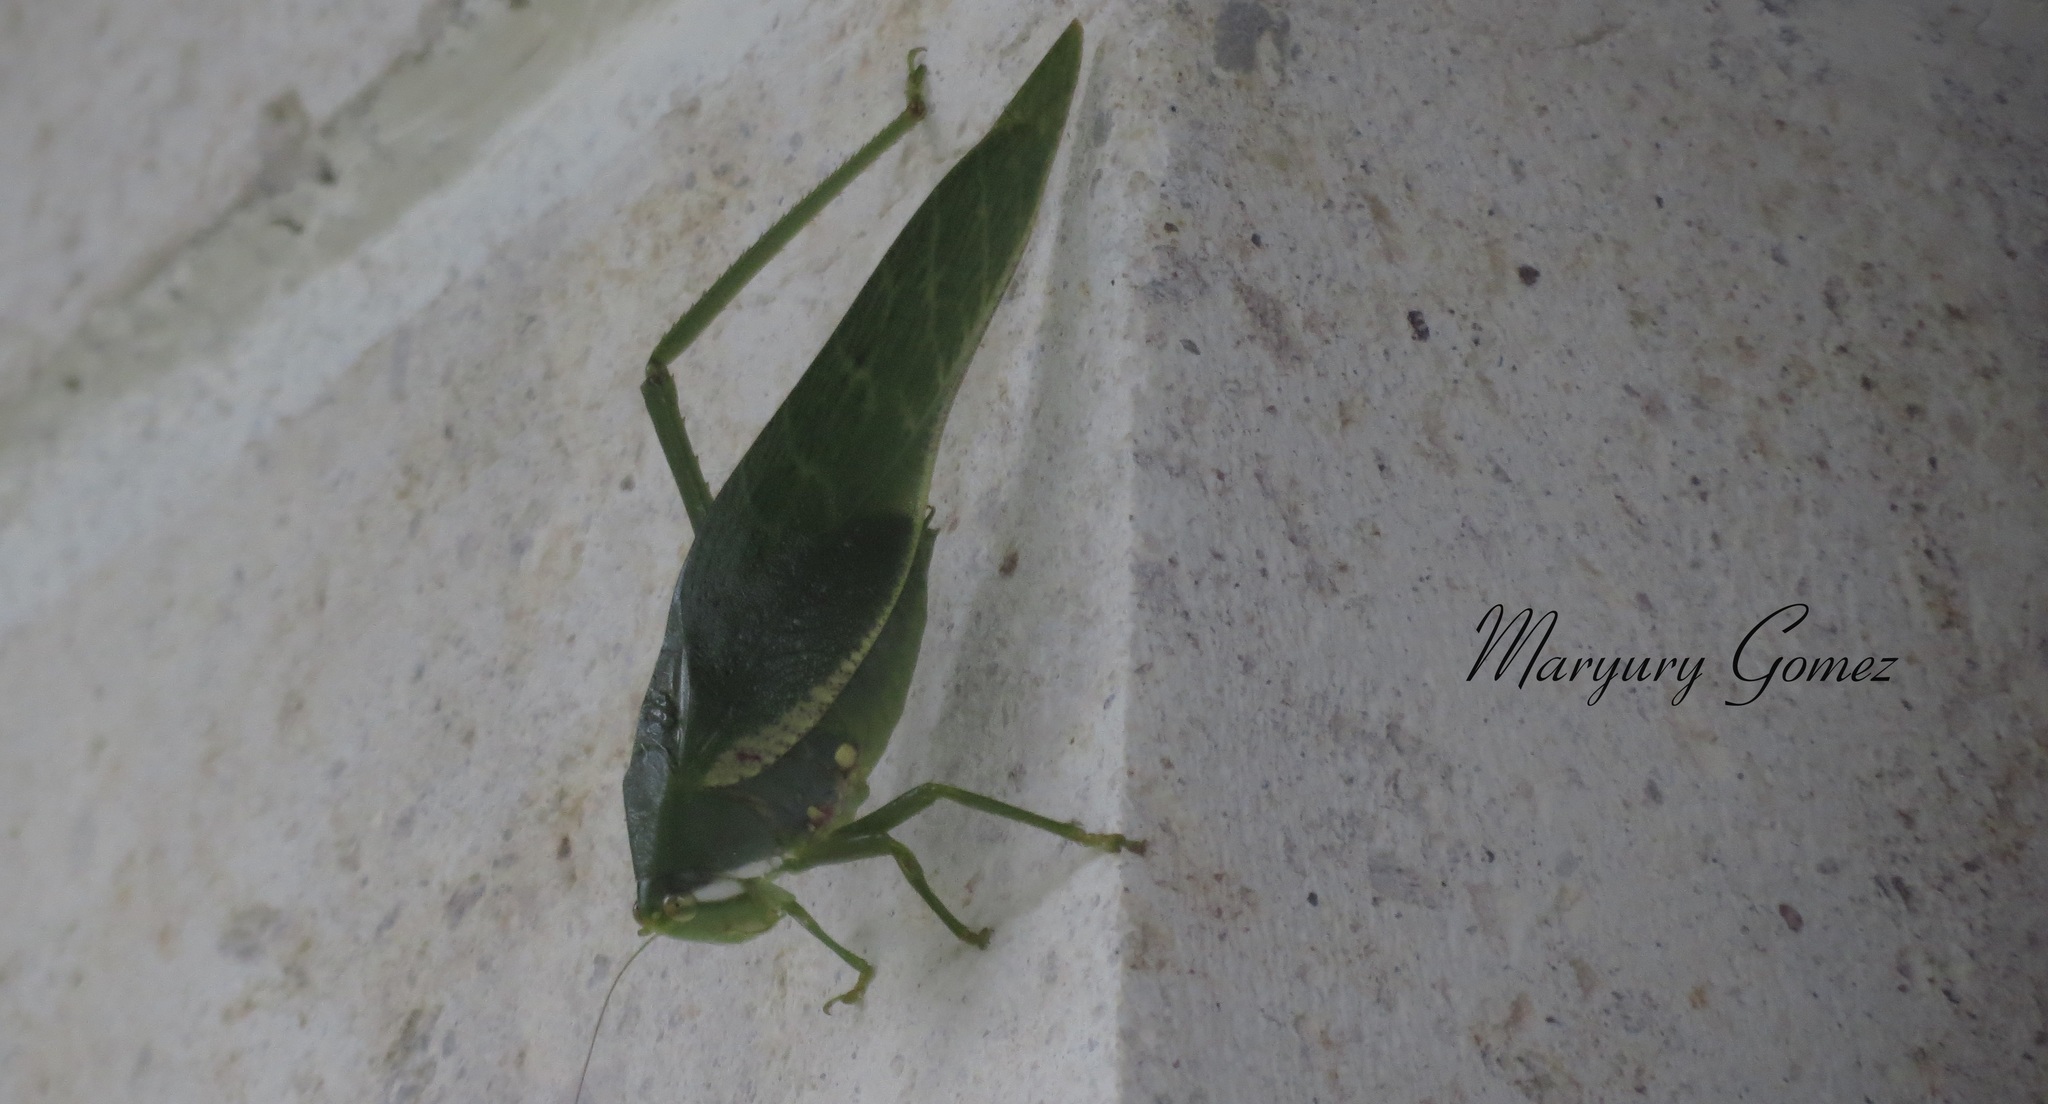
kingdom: Animalia
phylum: Arthropoda
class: Insecta
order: Orthoptera
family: Tettigoniidae
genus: Philophyllia
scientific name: Philophyllia guttulata
